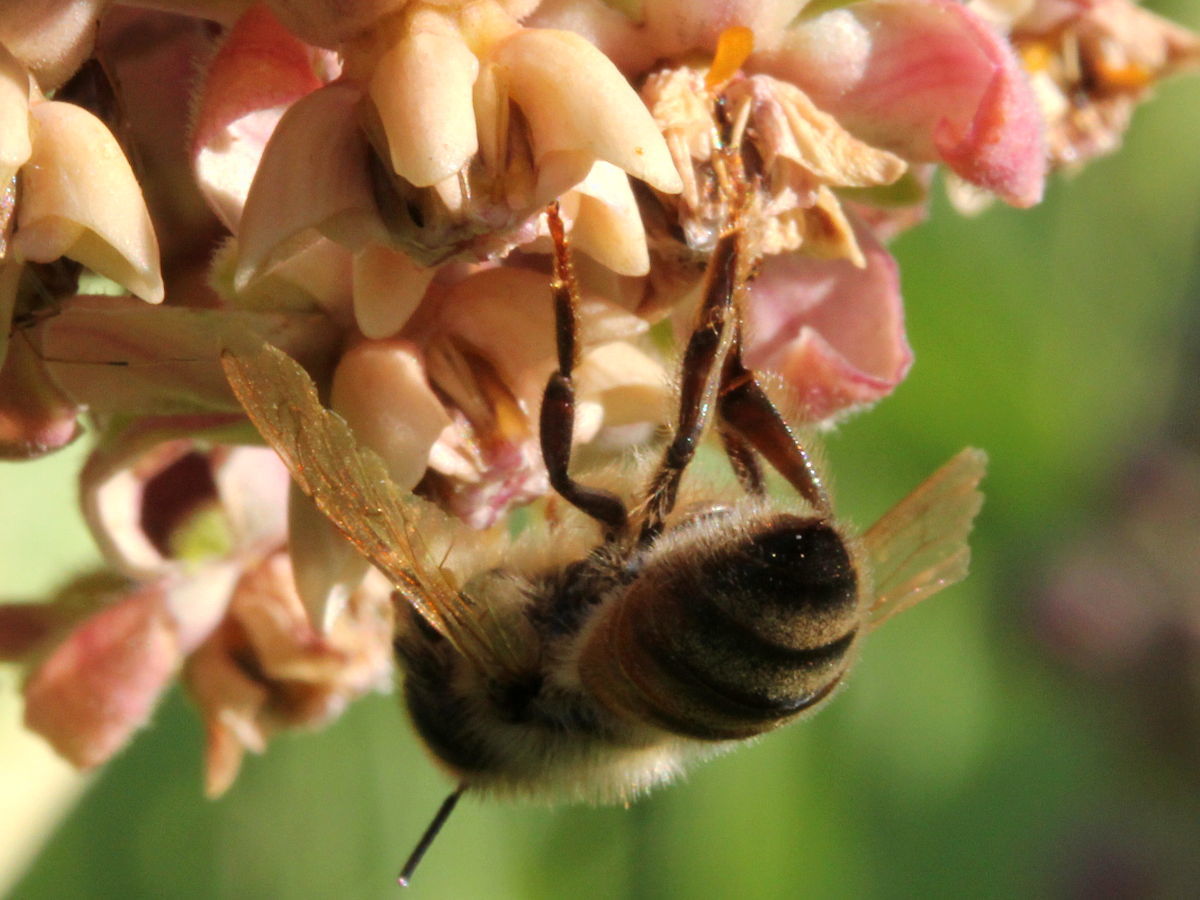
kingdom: Plantae
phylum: Tracheophyta
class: Magnoliopsida
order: Gentianales
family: Apocynaceae
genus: Asclepias
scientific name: Asclepias syriaca
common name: Common milkweed
